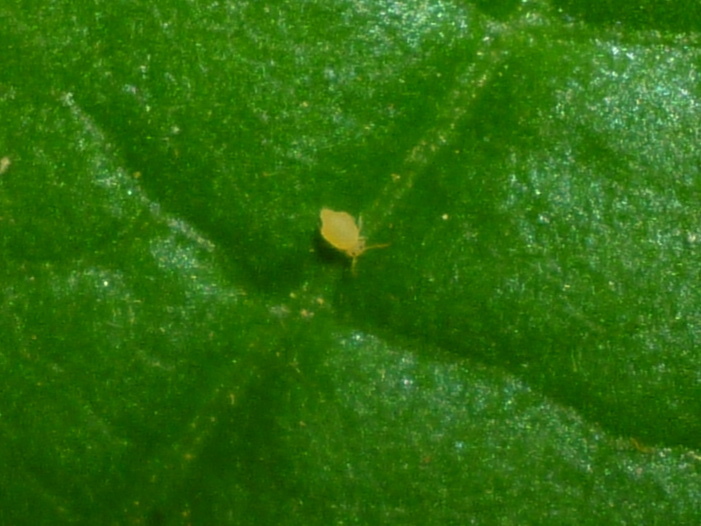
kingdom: Animalia
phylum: Arthropoda
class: Collembola
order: Symphypleona
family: Bourletiellidae
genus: Bourletiella
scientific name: Bourletiella arvalis
